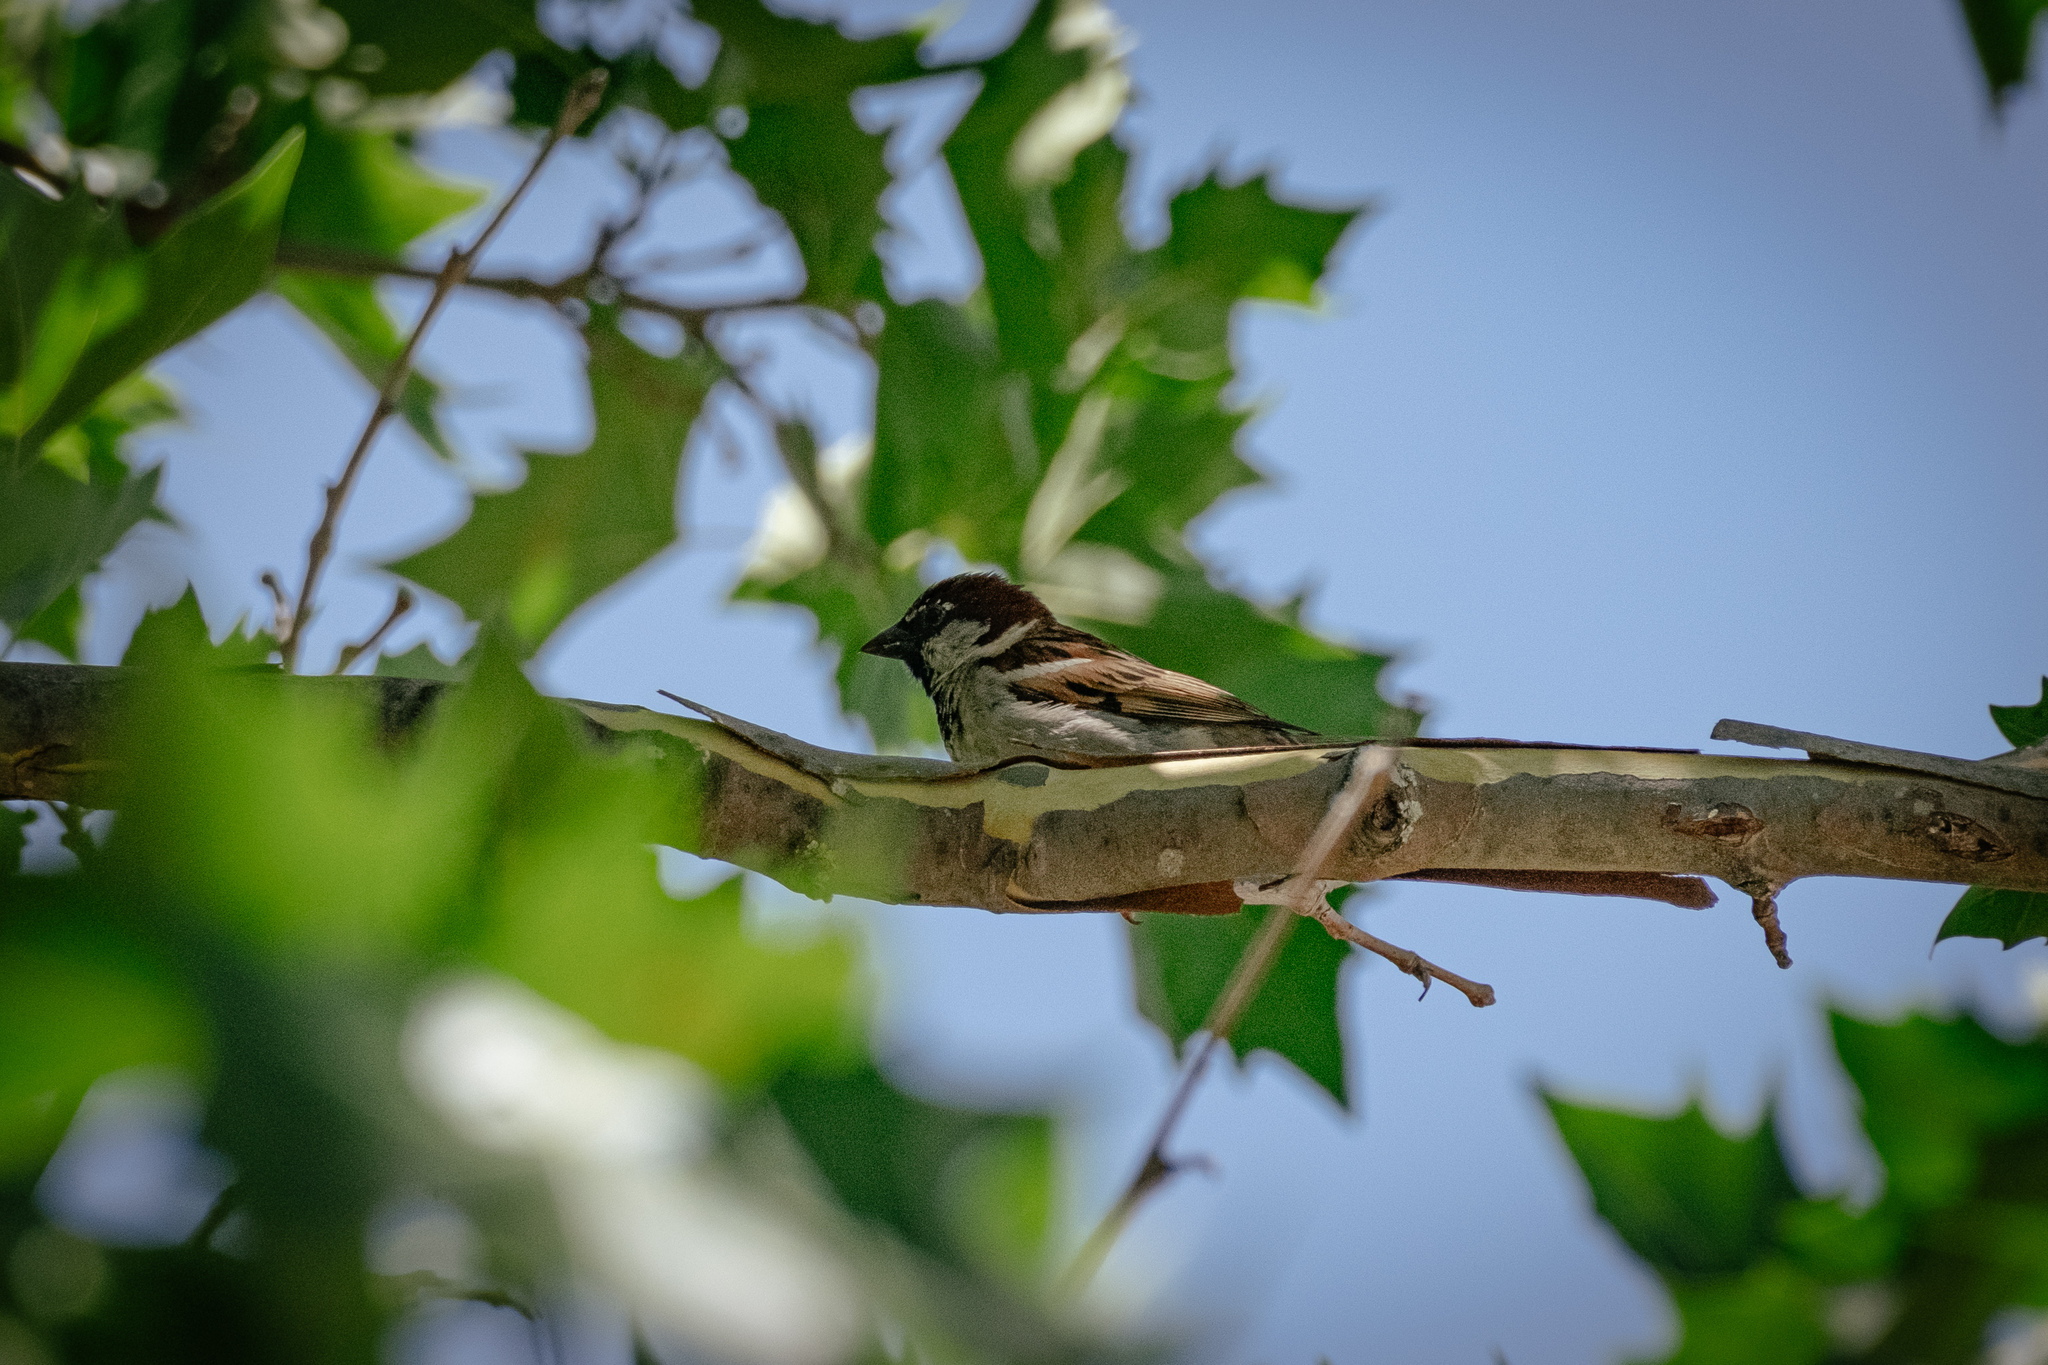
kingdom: Animalia
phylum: Chordata
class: Aves
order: Passeriformes
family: Passeridae
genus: Passer
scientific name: Passer domesticus
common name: House sparrow
